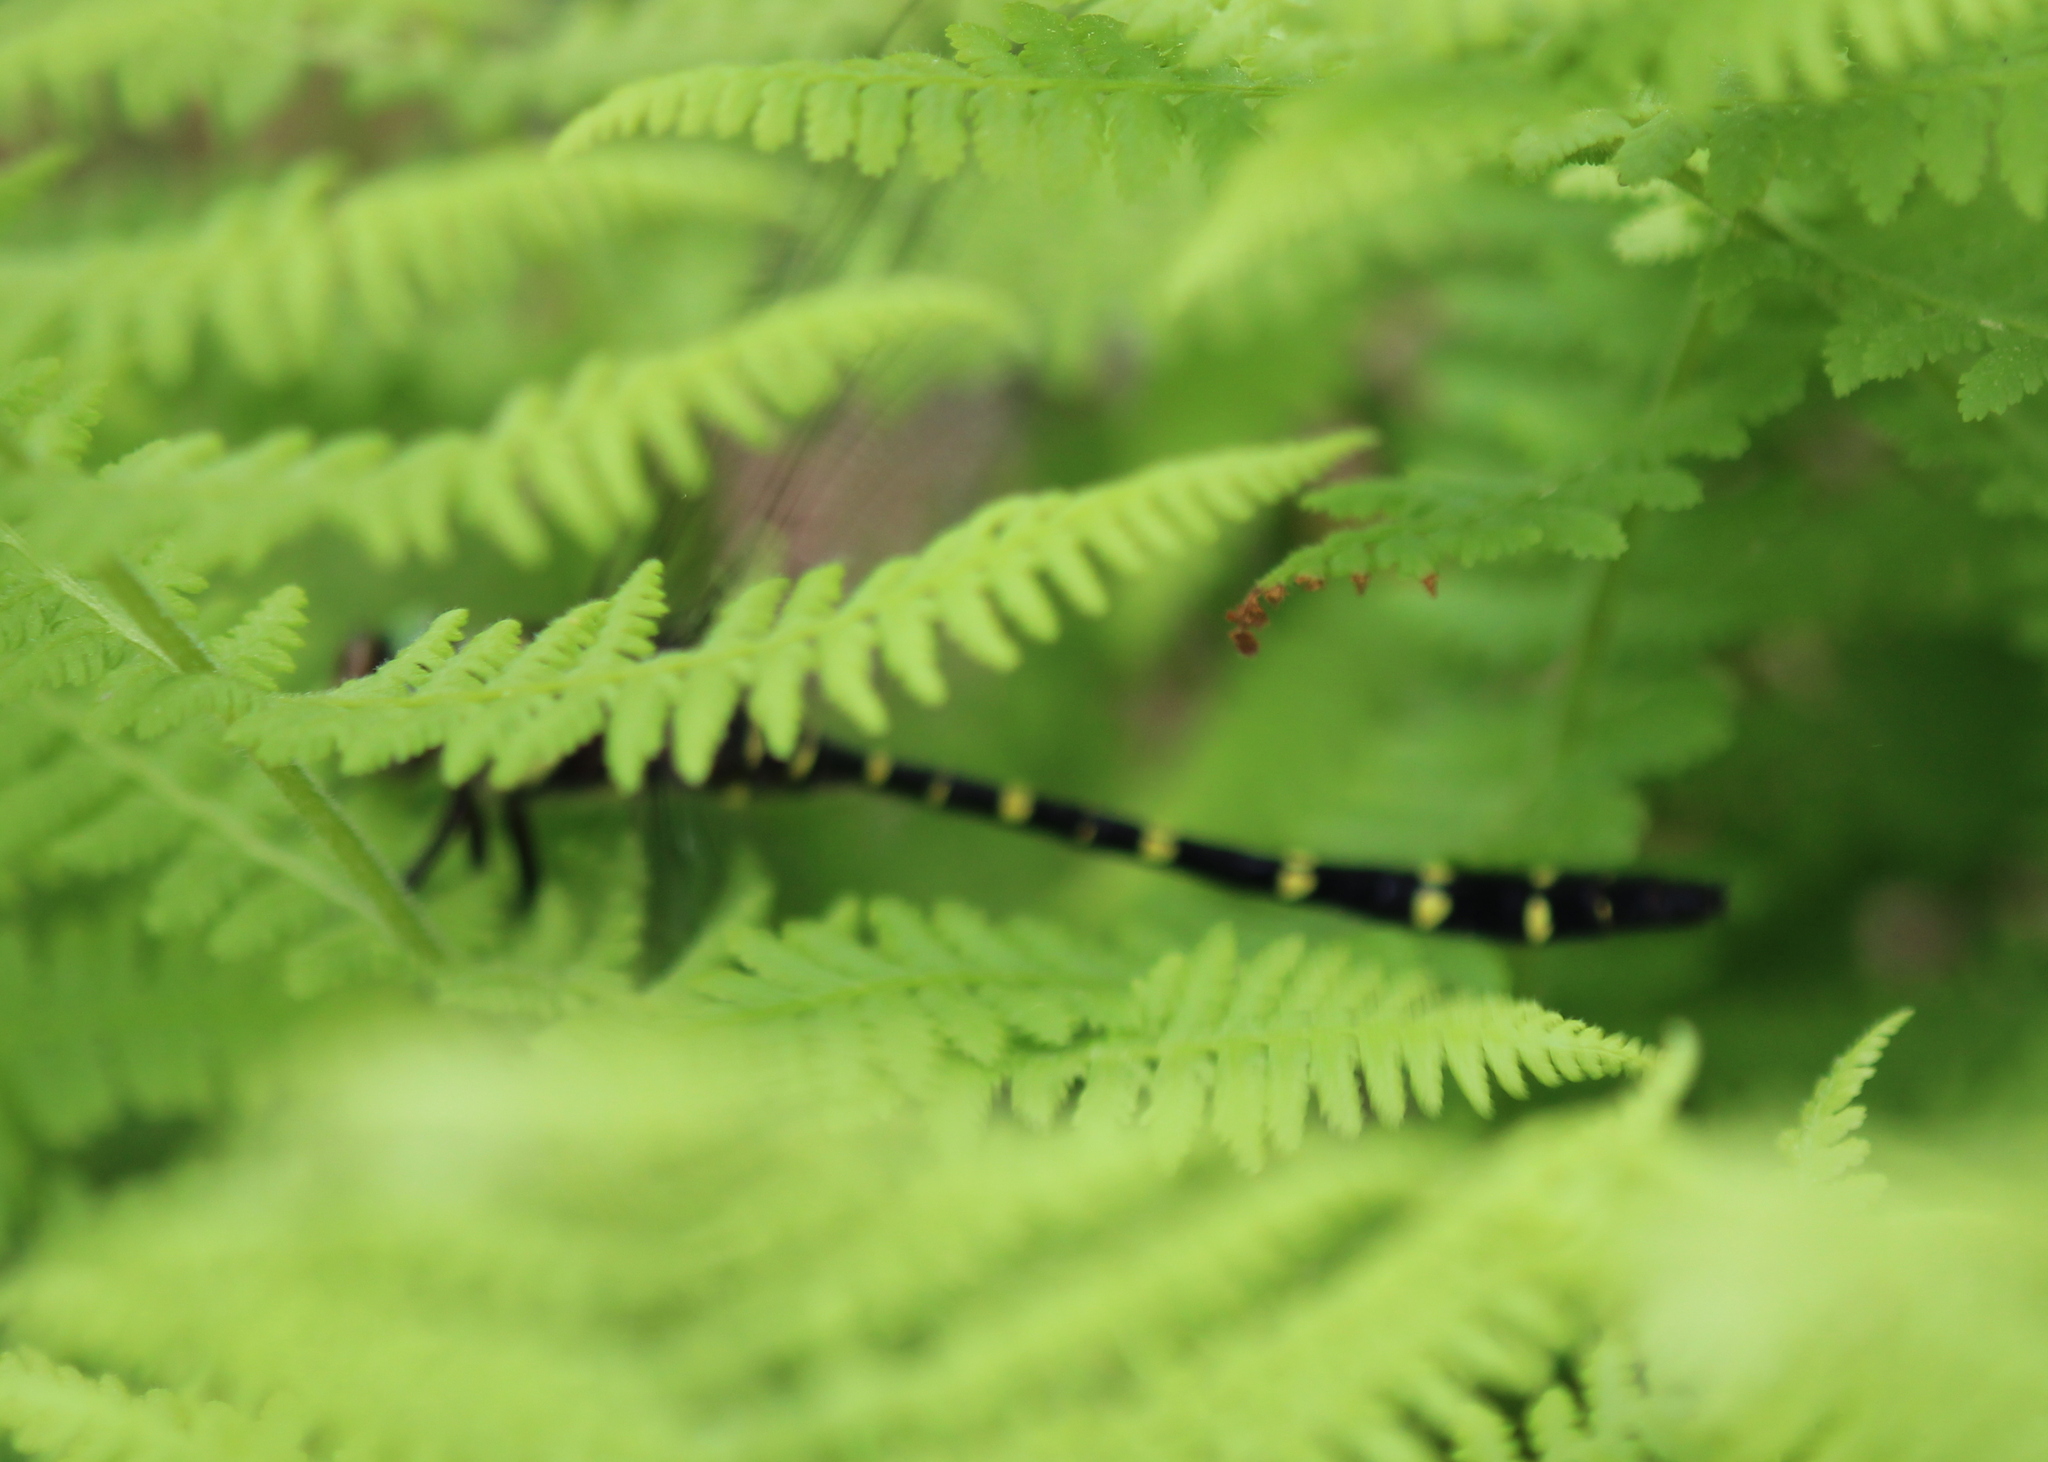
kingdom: Animalia
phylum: Arthropoda
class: Insecta
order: Odonata
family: Cordulegastridae
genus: Cordulegaster
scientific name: Cordulegaster maculata
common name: Twin-spotted spiketail
